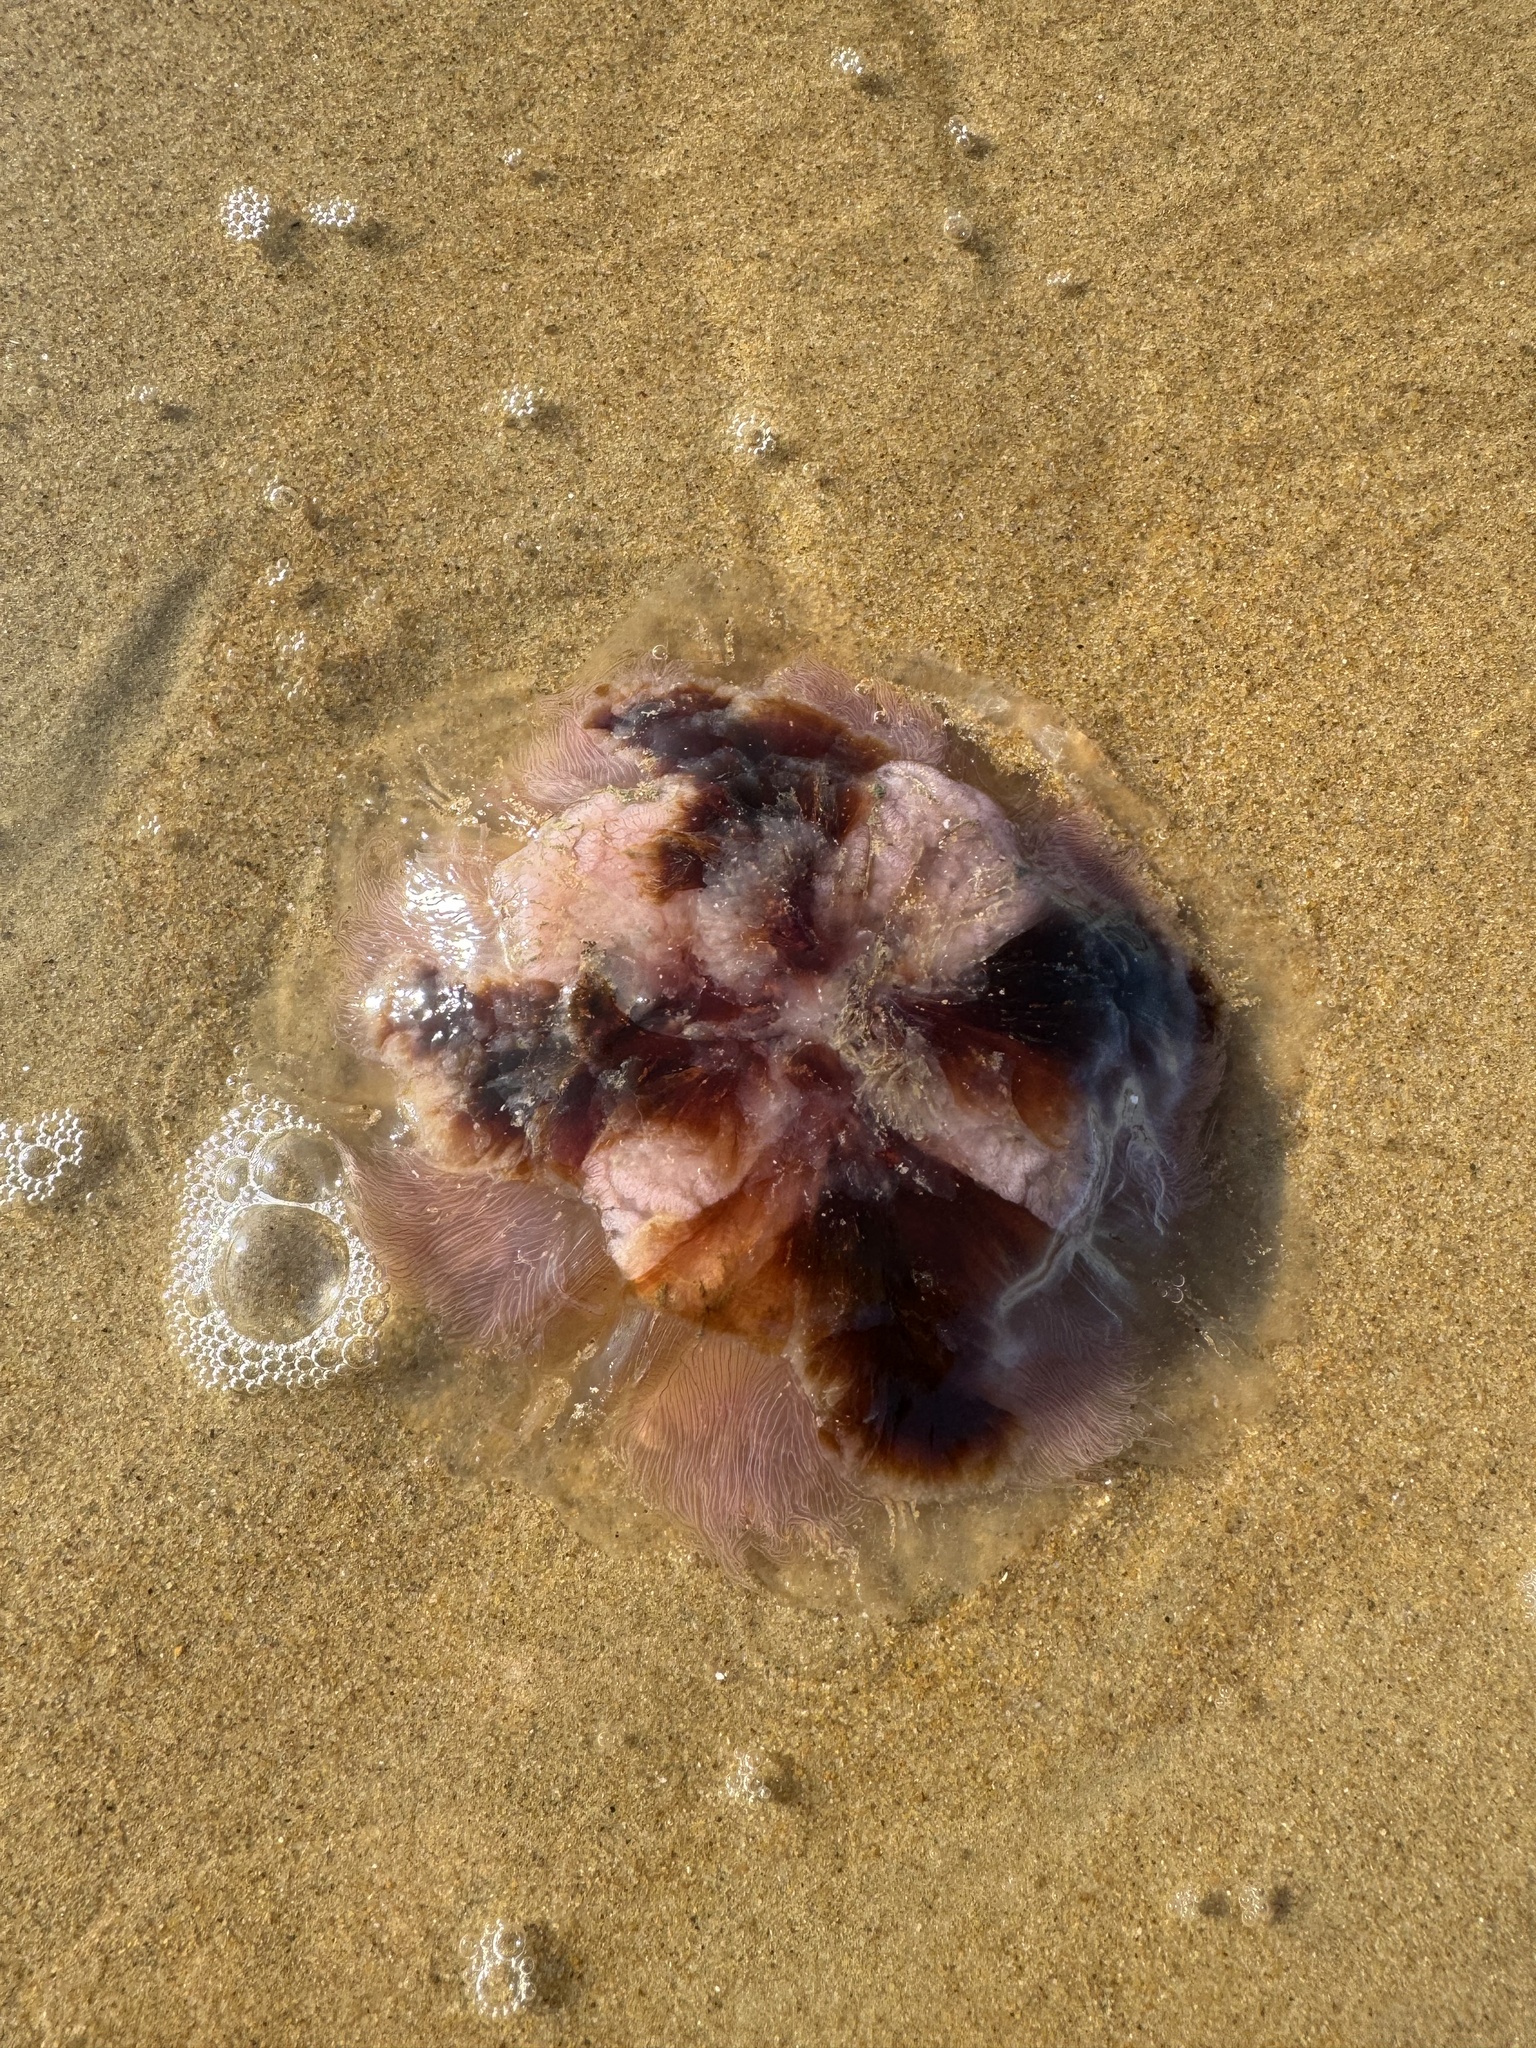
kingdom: Animalia
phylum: Cnidaria
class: Scyphozoa
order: Semaeostomeae
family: Cyaneidae
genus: Cyanea
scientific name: Cyanea versicolor
